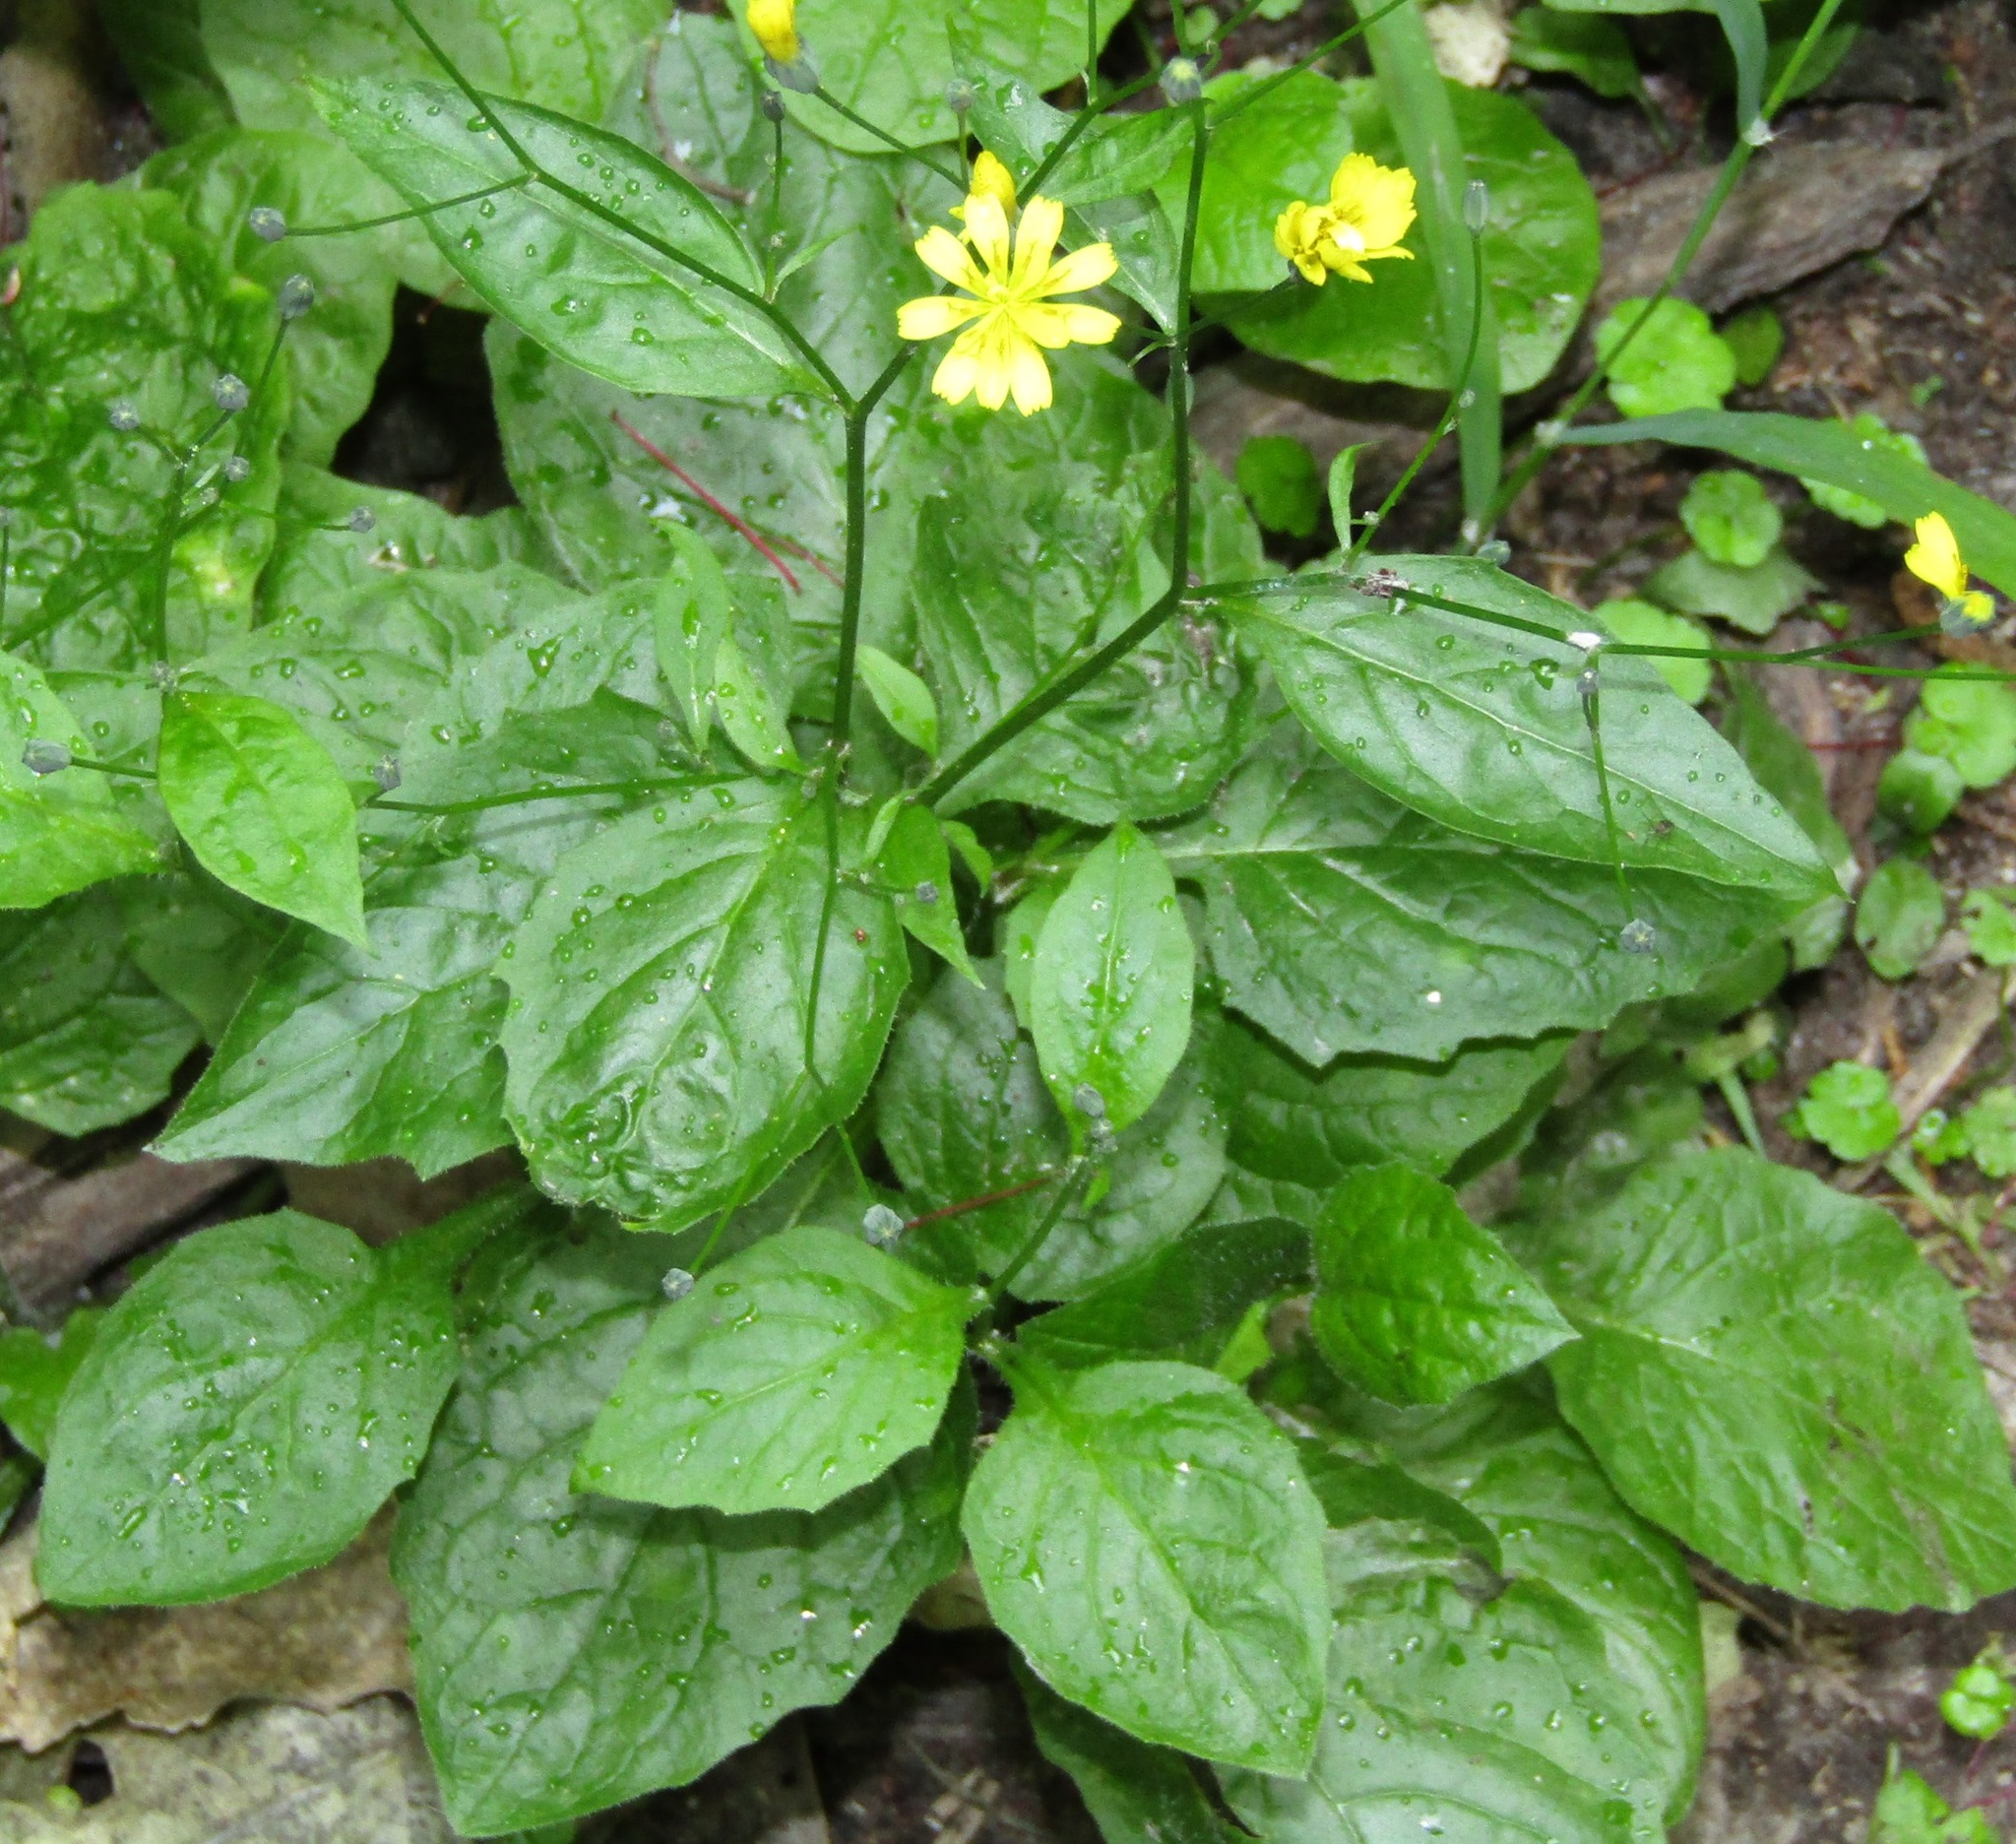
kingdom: Plantae
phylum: Tracheophyta
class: Magnoliopsida
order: Asterales
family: Asteraceae
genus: Lapsana
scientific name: Lapsana communis
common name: Nipplewort
